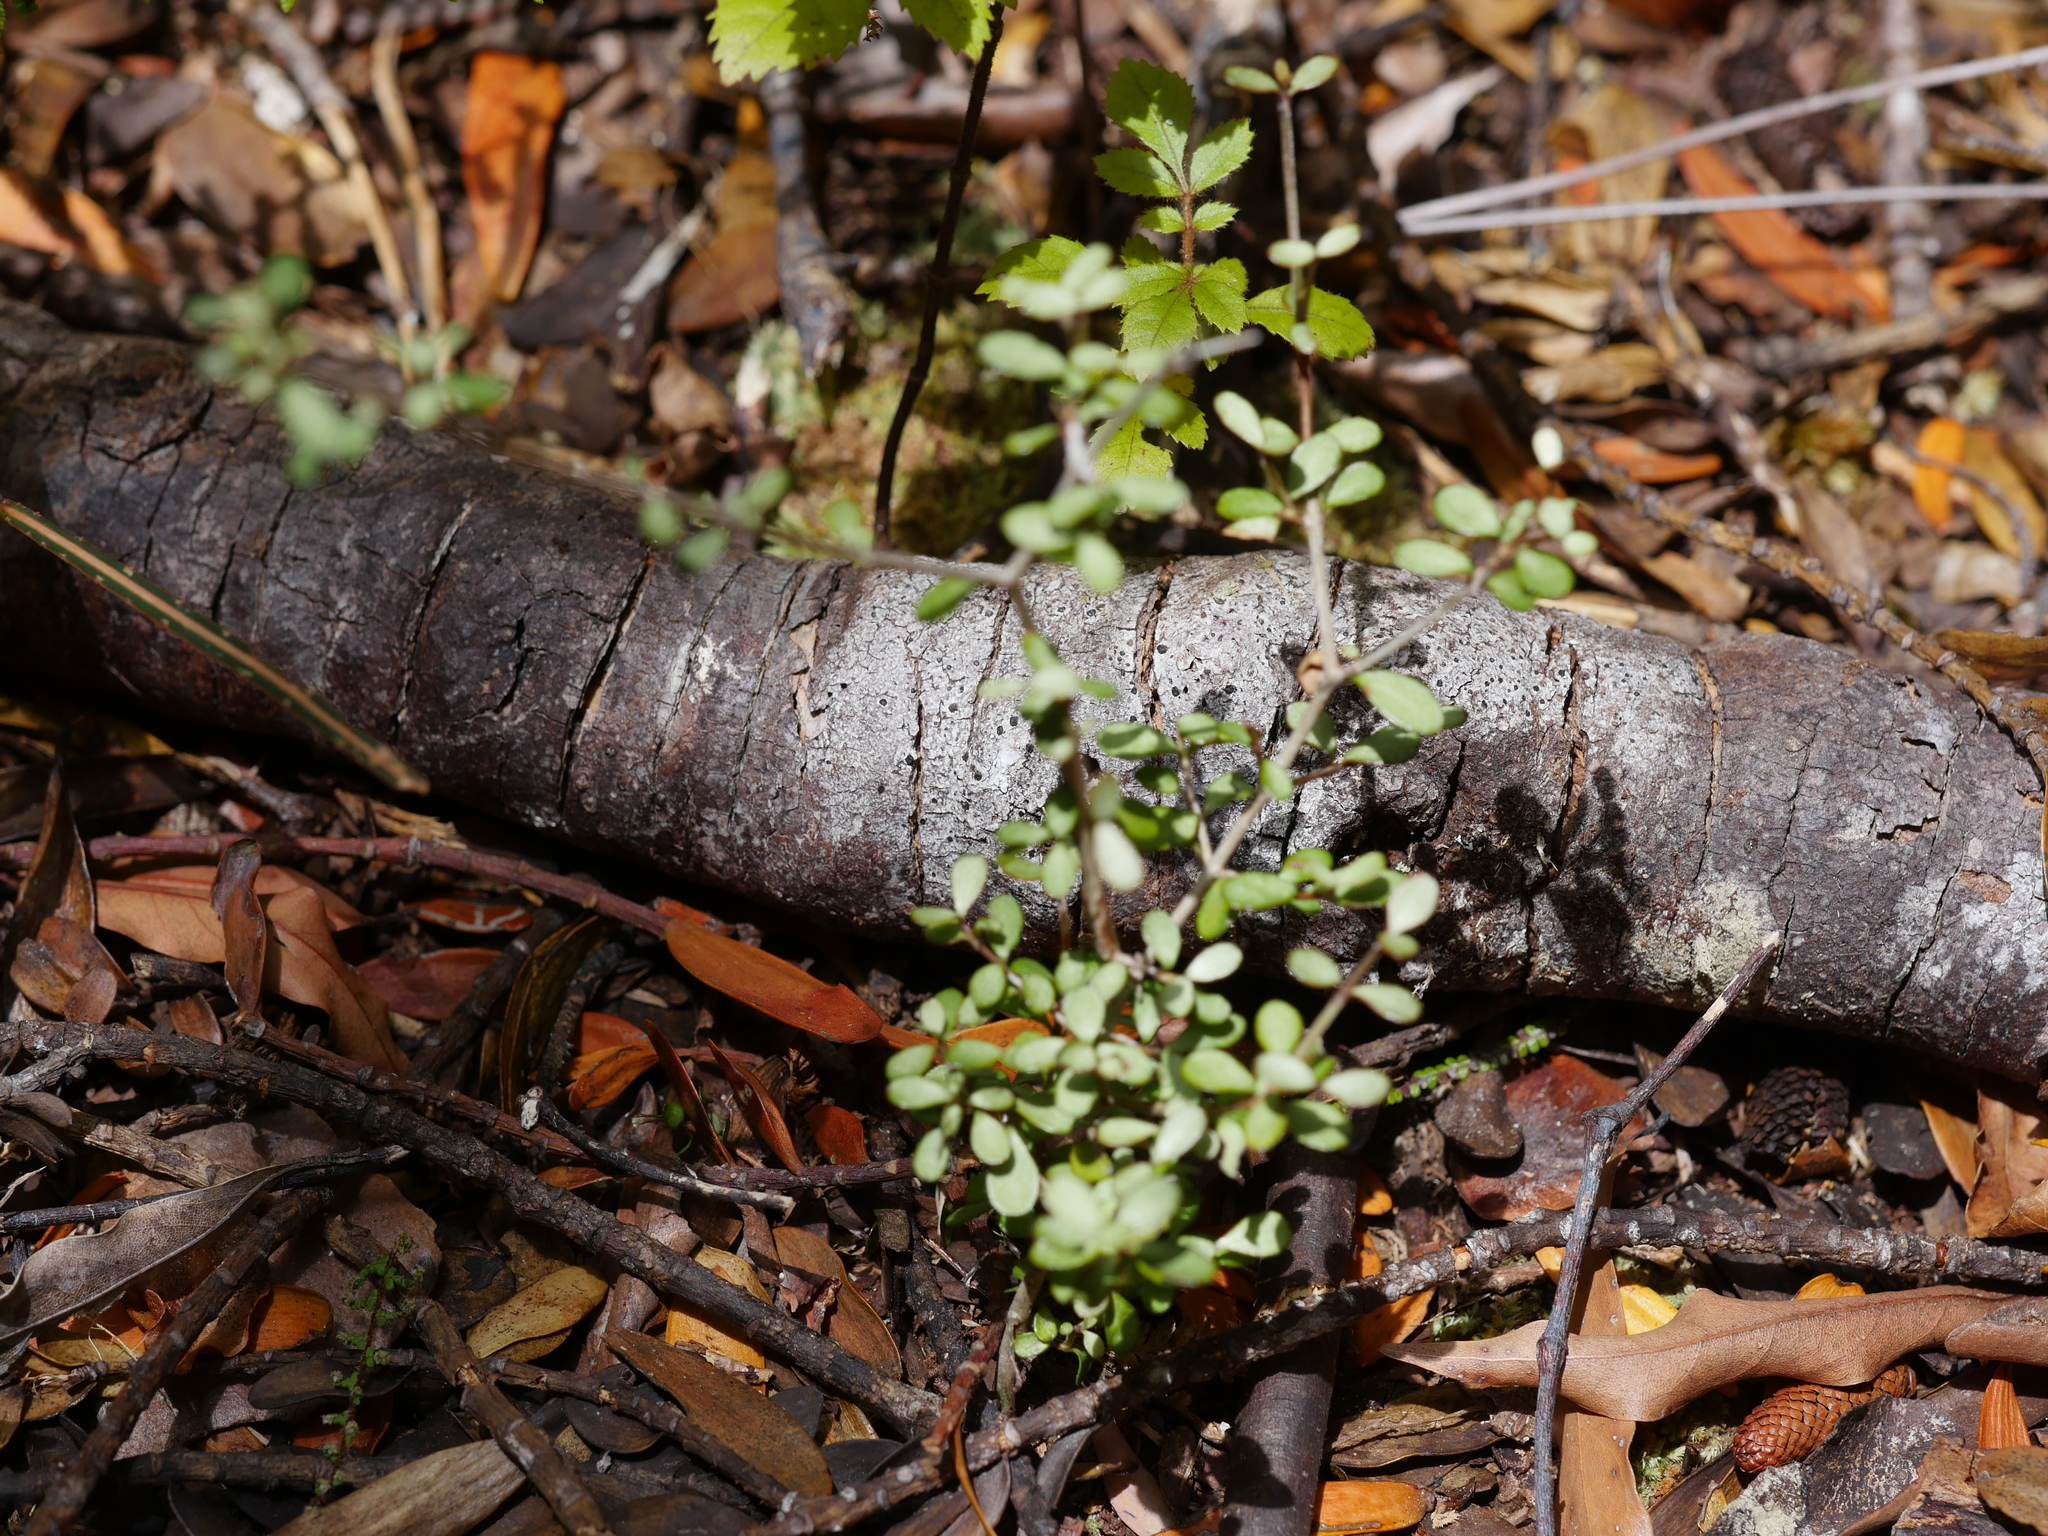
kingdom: Plantae
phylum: Tracheophyta
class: Magnoliopsida
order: Myrtales
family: Myrtaceae
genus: Neomyrtus
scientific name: Neomyrtus pedunculata
